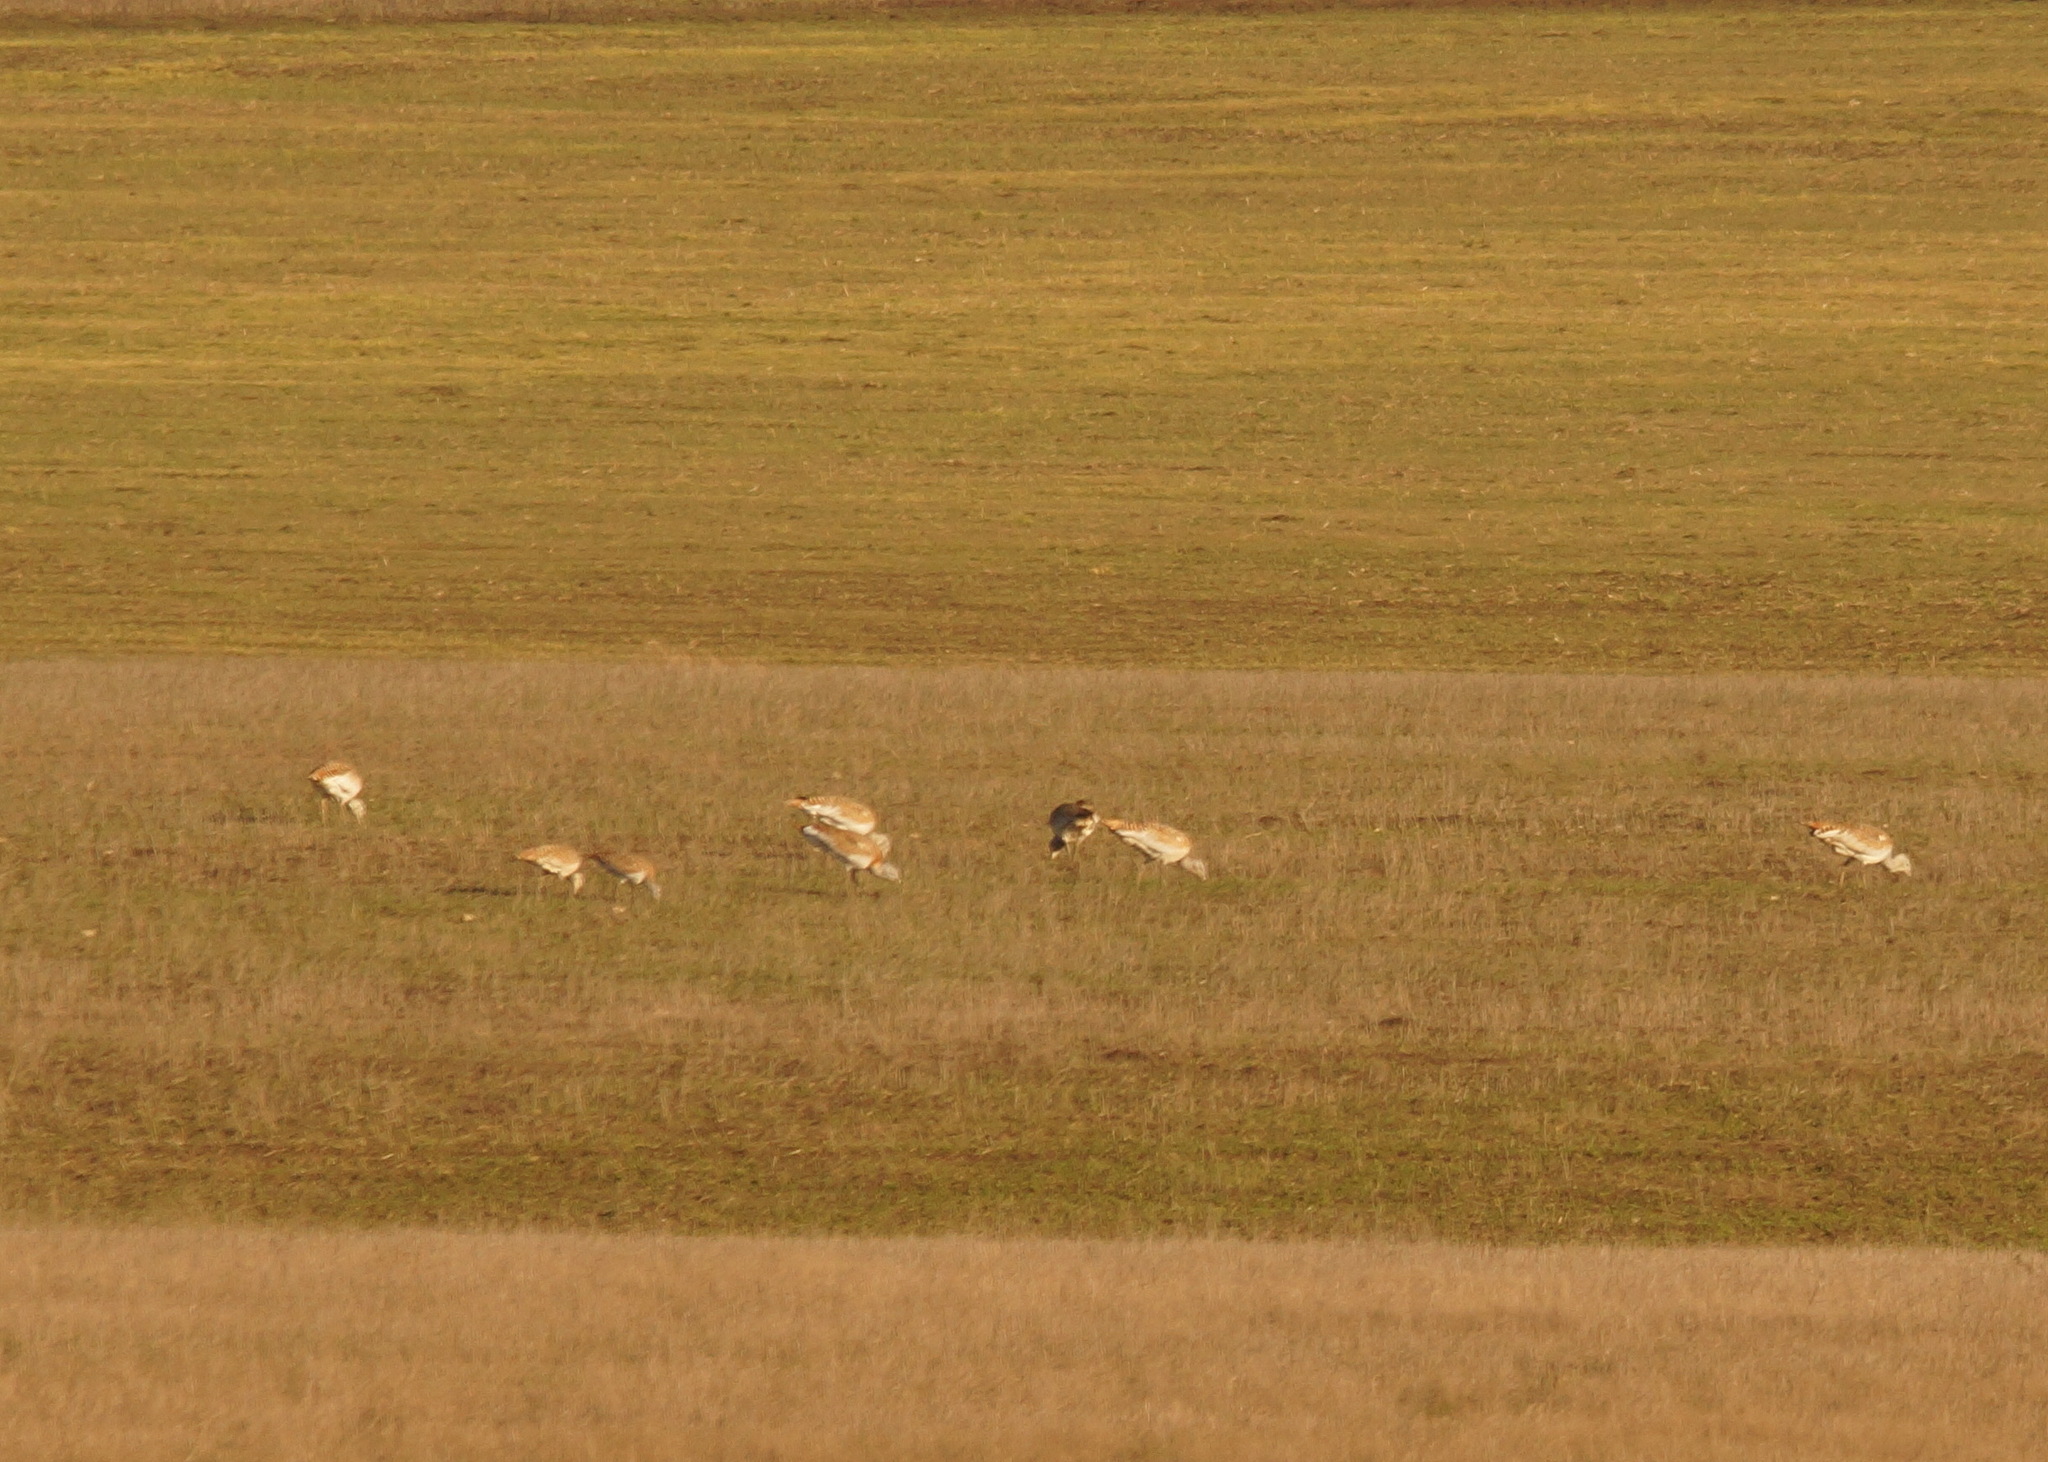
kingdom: Animalia
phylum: Chordata
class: Aves
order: Otidiformes
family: Otididae
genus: Otis
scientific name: Otis tarda
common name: Great bustard
